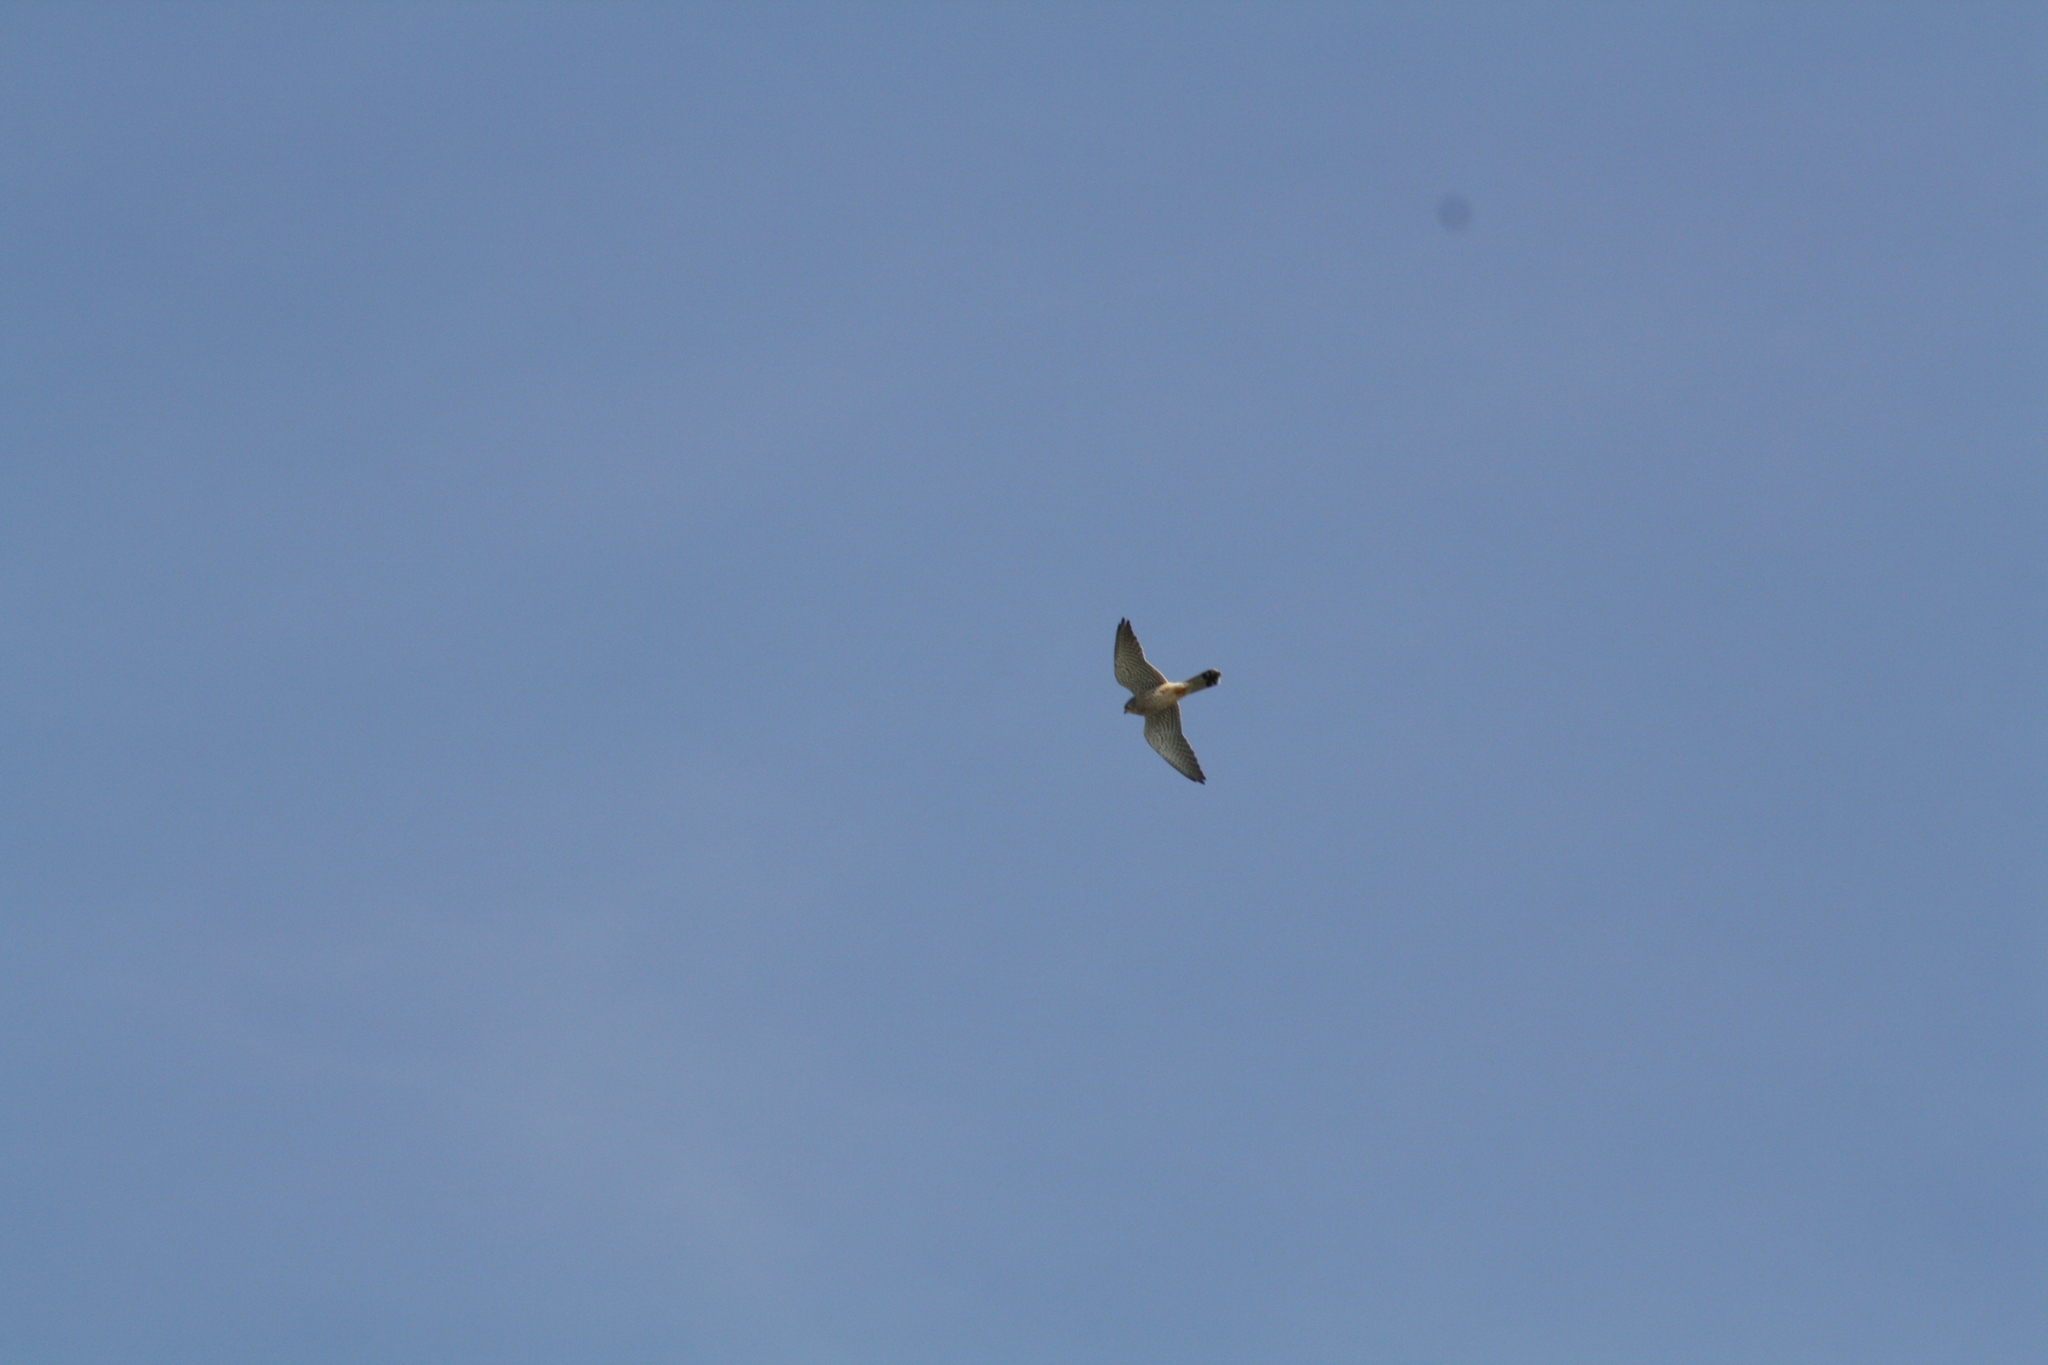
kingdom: Animalia
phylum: Chordata
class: Aves
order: Falconiformes
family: Falconidae
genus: Falco
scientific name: Falco tinnunculus
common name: Common kestrel
